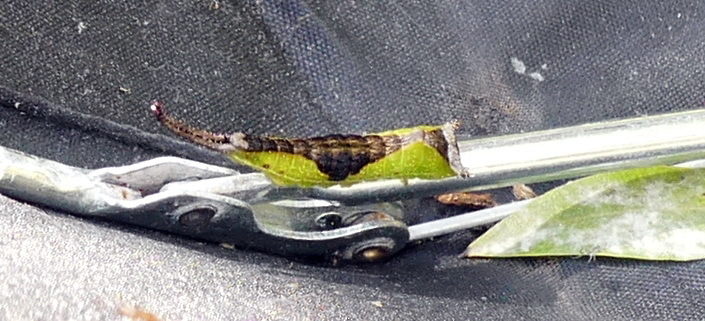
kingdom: Animalia
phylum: Arthropoda
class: Insecta
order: Lepidoptera
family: Notodontidae
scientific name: Notodontidae
